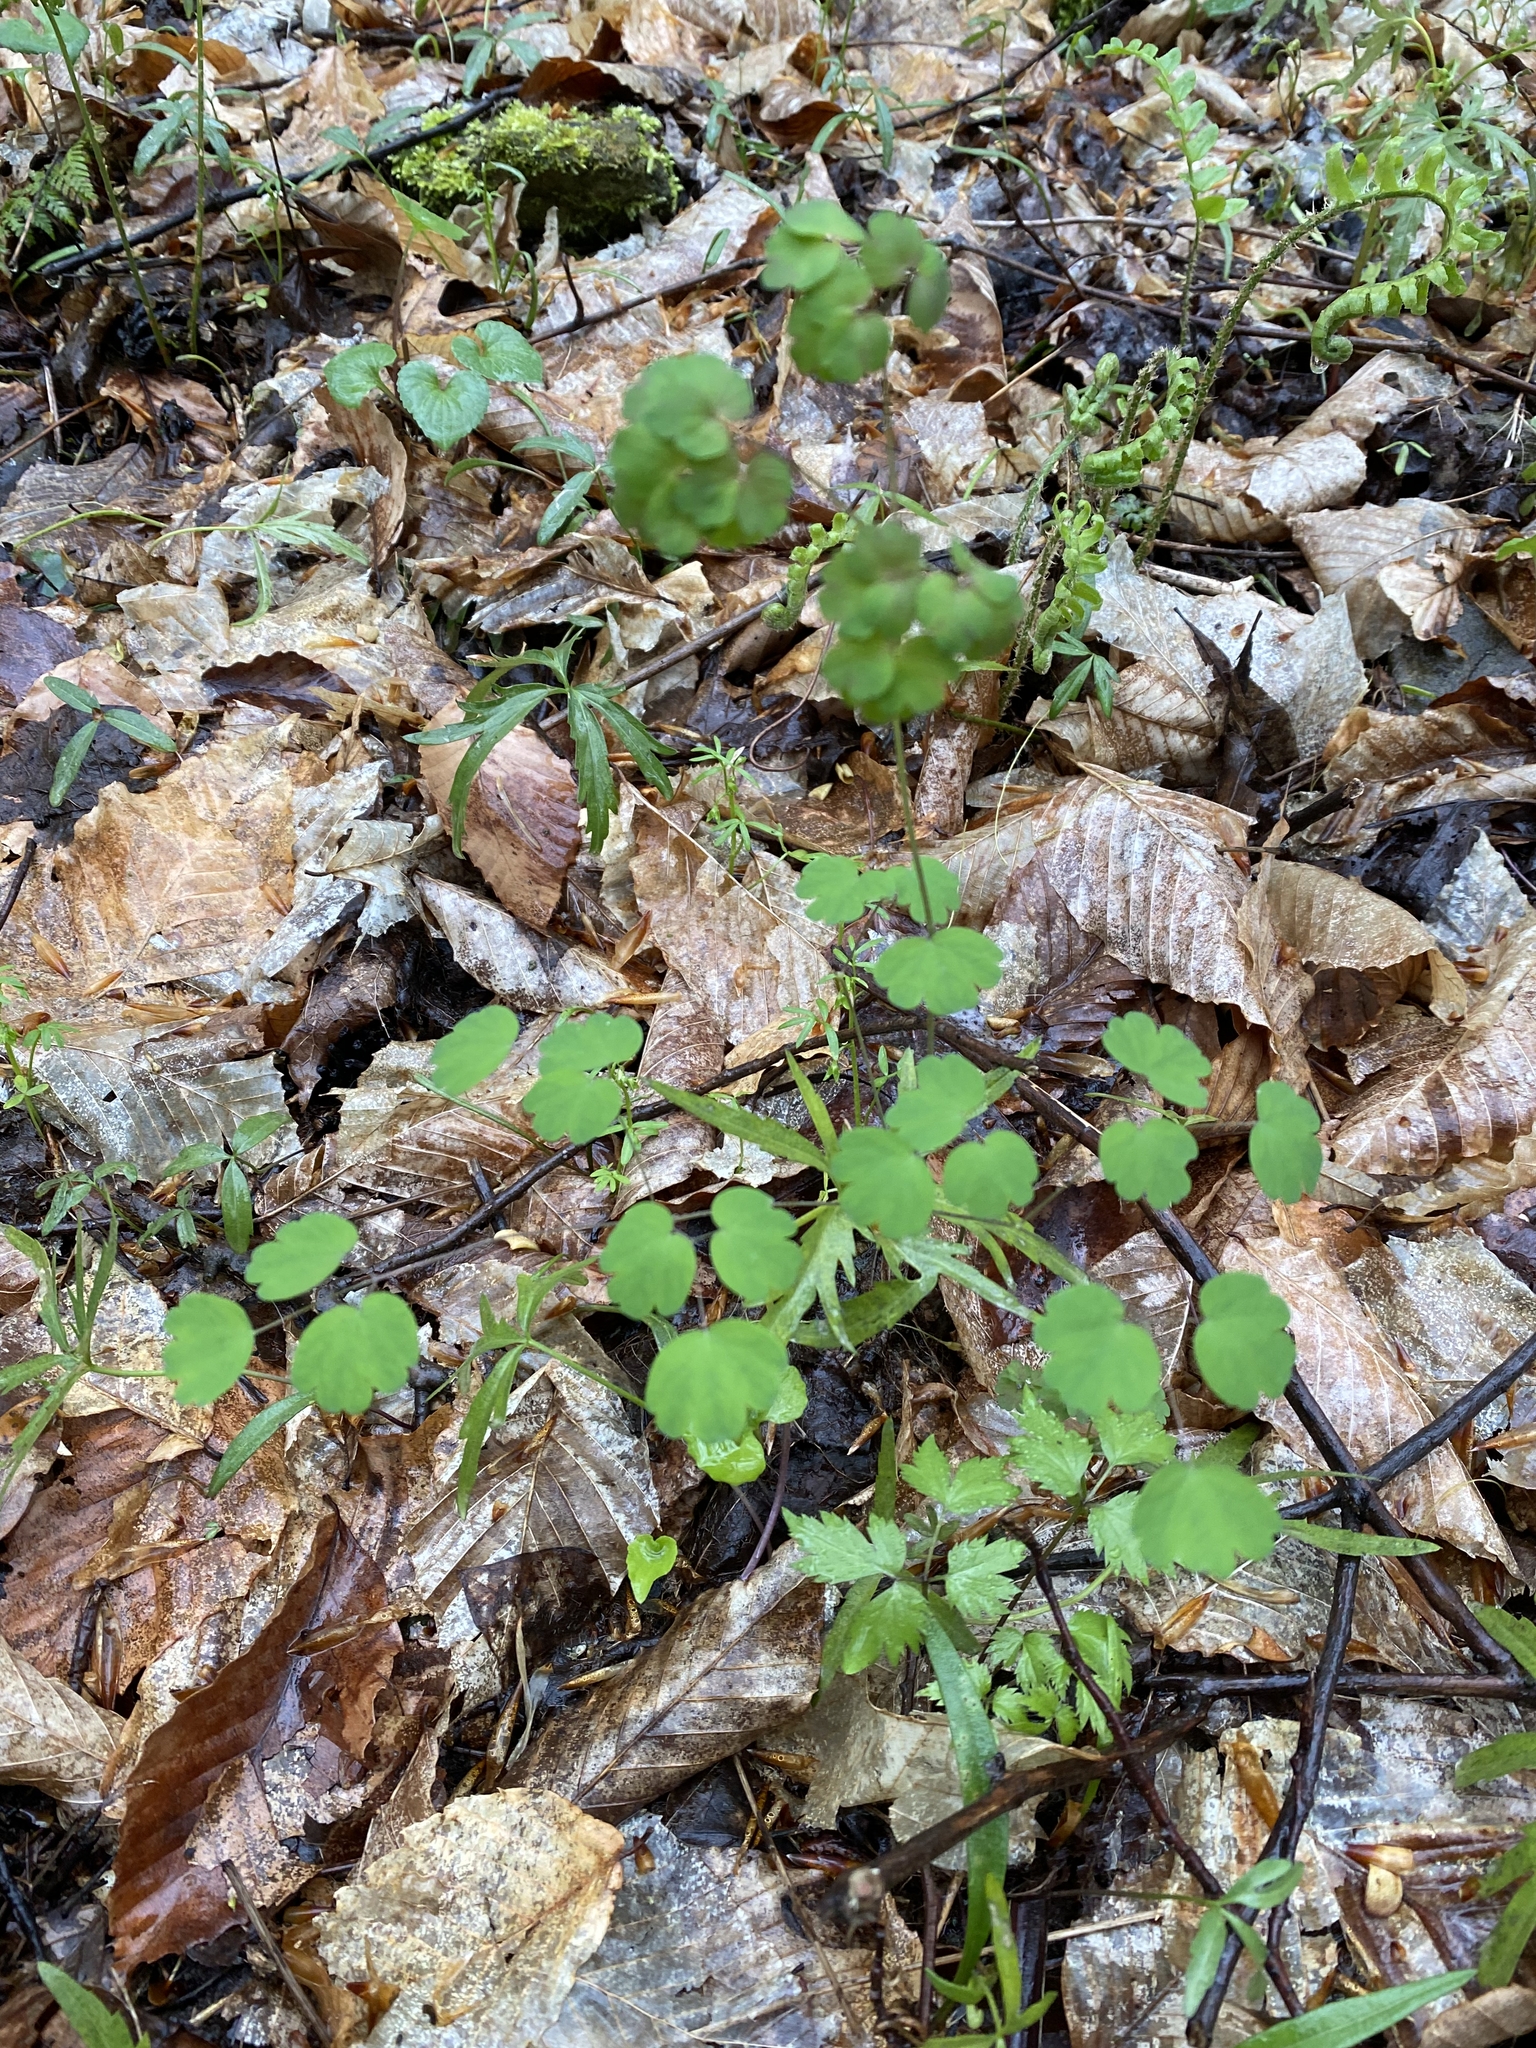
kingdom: Plantae
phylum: Tracheophyta
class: Magnoliopsida
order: Ranunculales
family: Ranunculaceae
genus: Thalictrum
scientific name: Thalictrum dioicum
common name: Early meadow-rue
